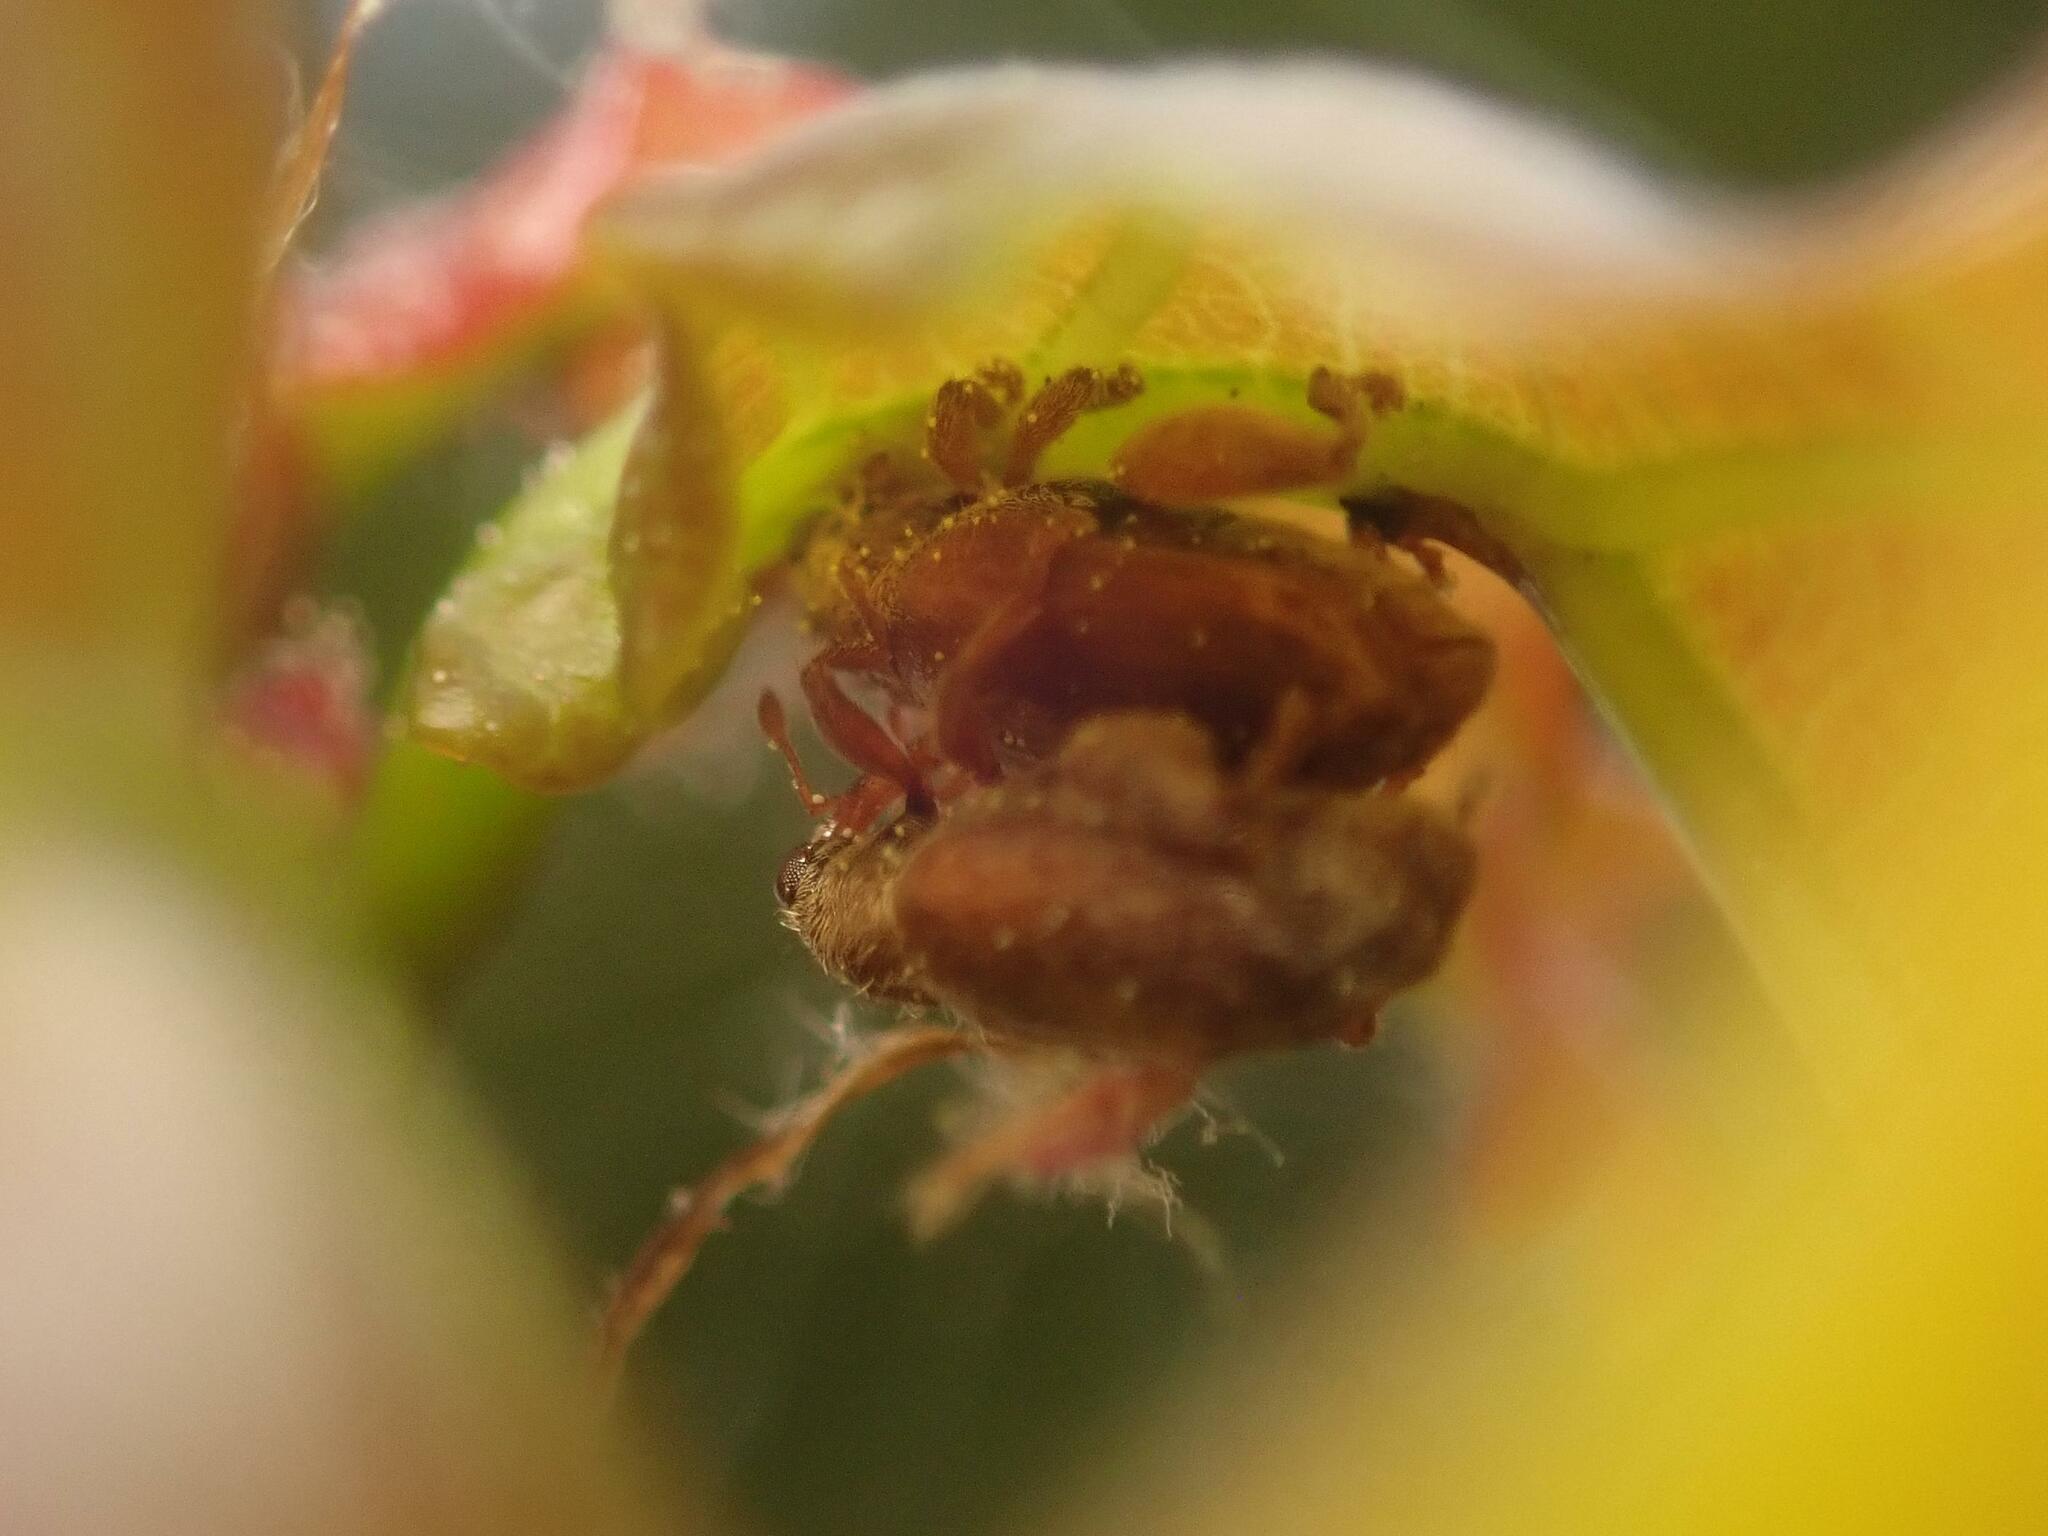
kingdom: Animalia
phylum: Arthropoda
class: Insecta
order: Coleoptera
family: Curculionidae
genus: Orchestes
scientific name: Orchestes quercus
